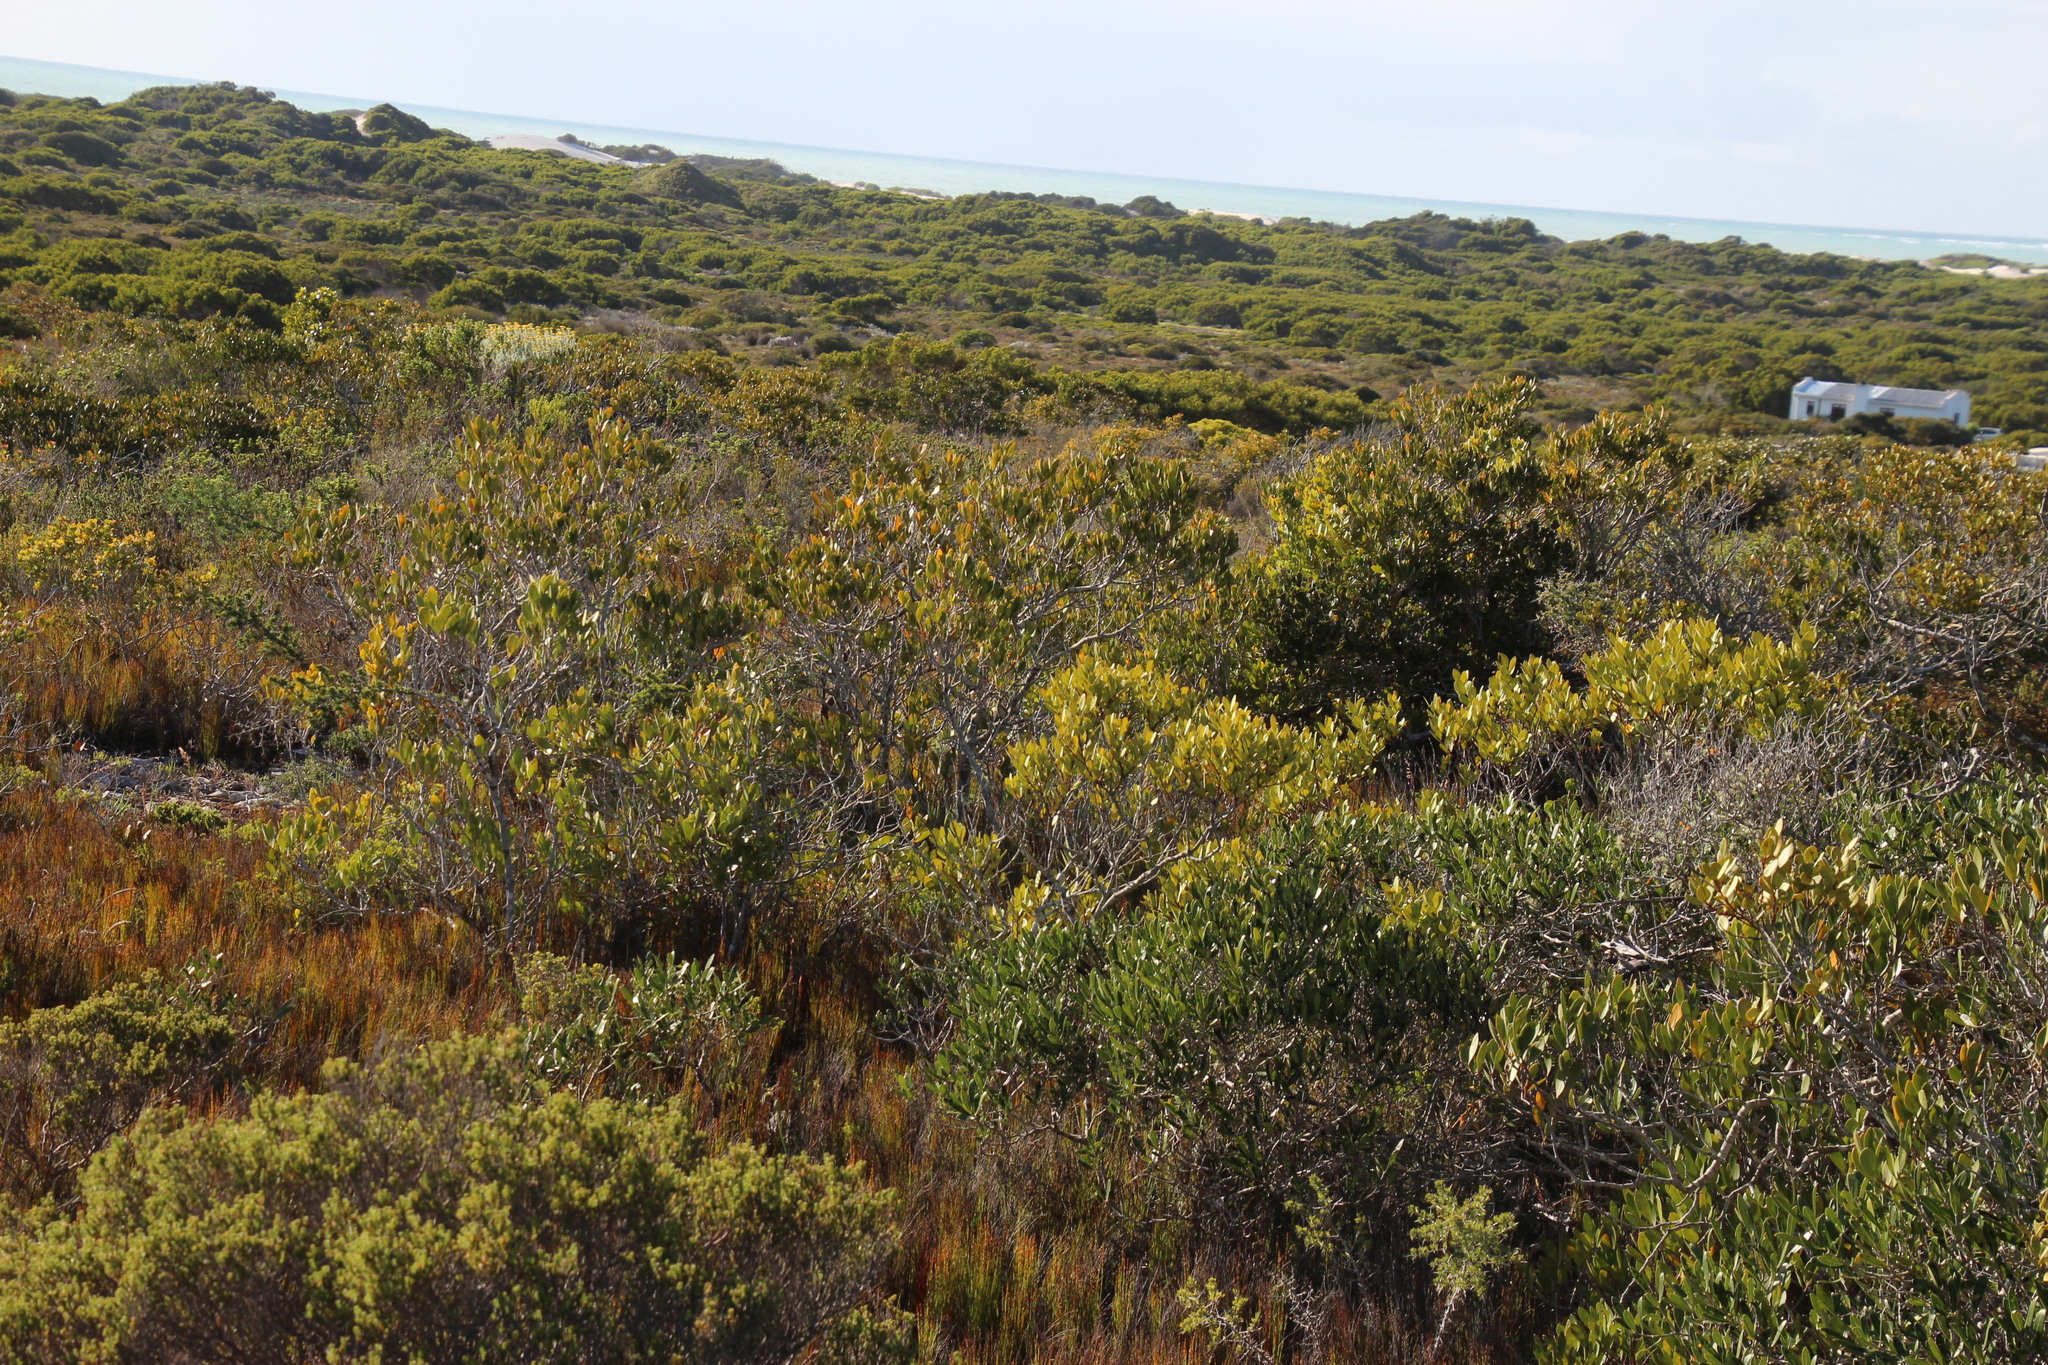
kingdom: Plantae
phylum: Tracheophyta
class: Magnoliopsida
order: Lamiales
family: Oleaceae
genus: Olea
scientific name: Olea exasperata
